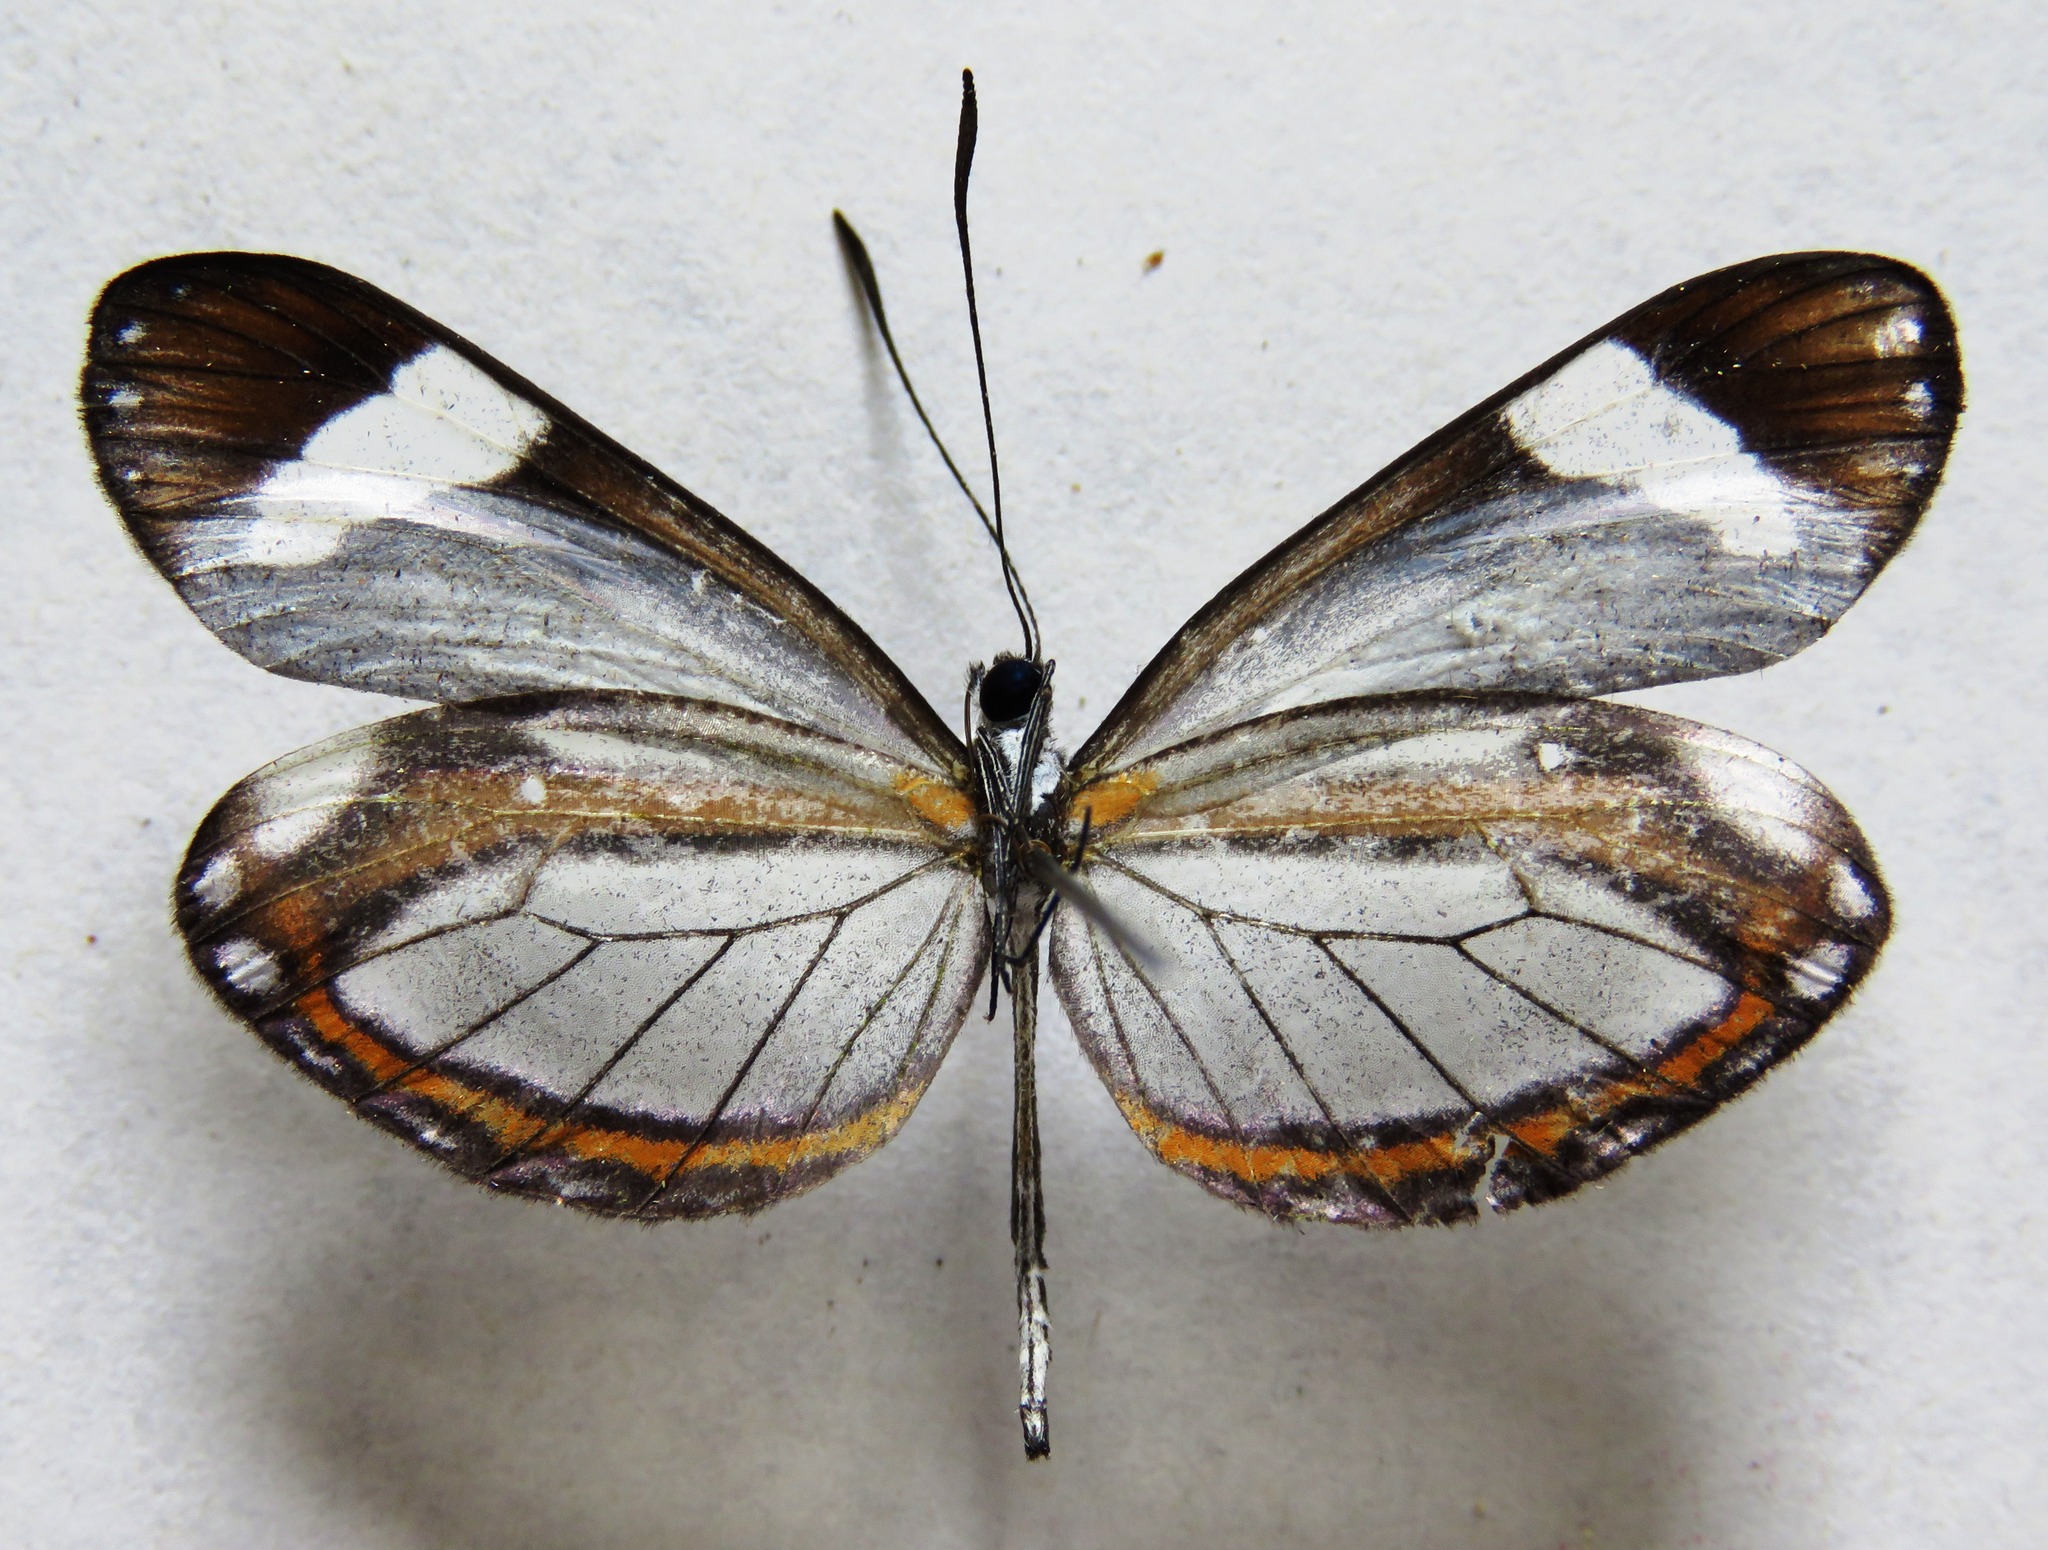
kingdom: Animalia
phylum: Arthropoda
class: Insecta
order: Lepidoptera
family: Pieridae
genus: Dismorphia
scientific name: Dismorphia theucharila
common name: Clearwing mimic-white
